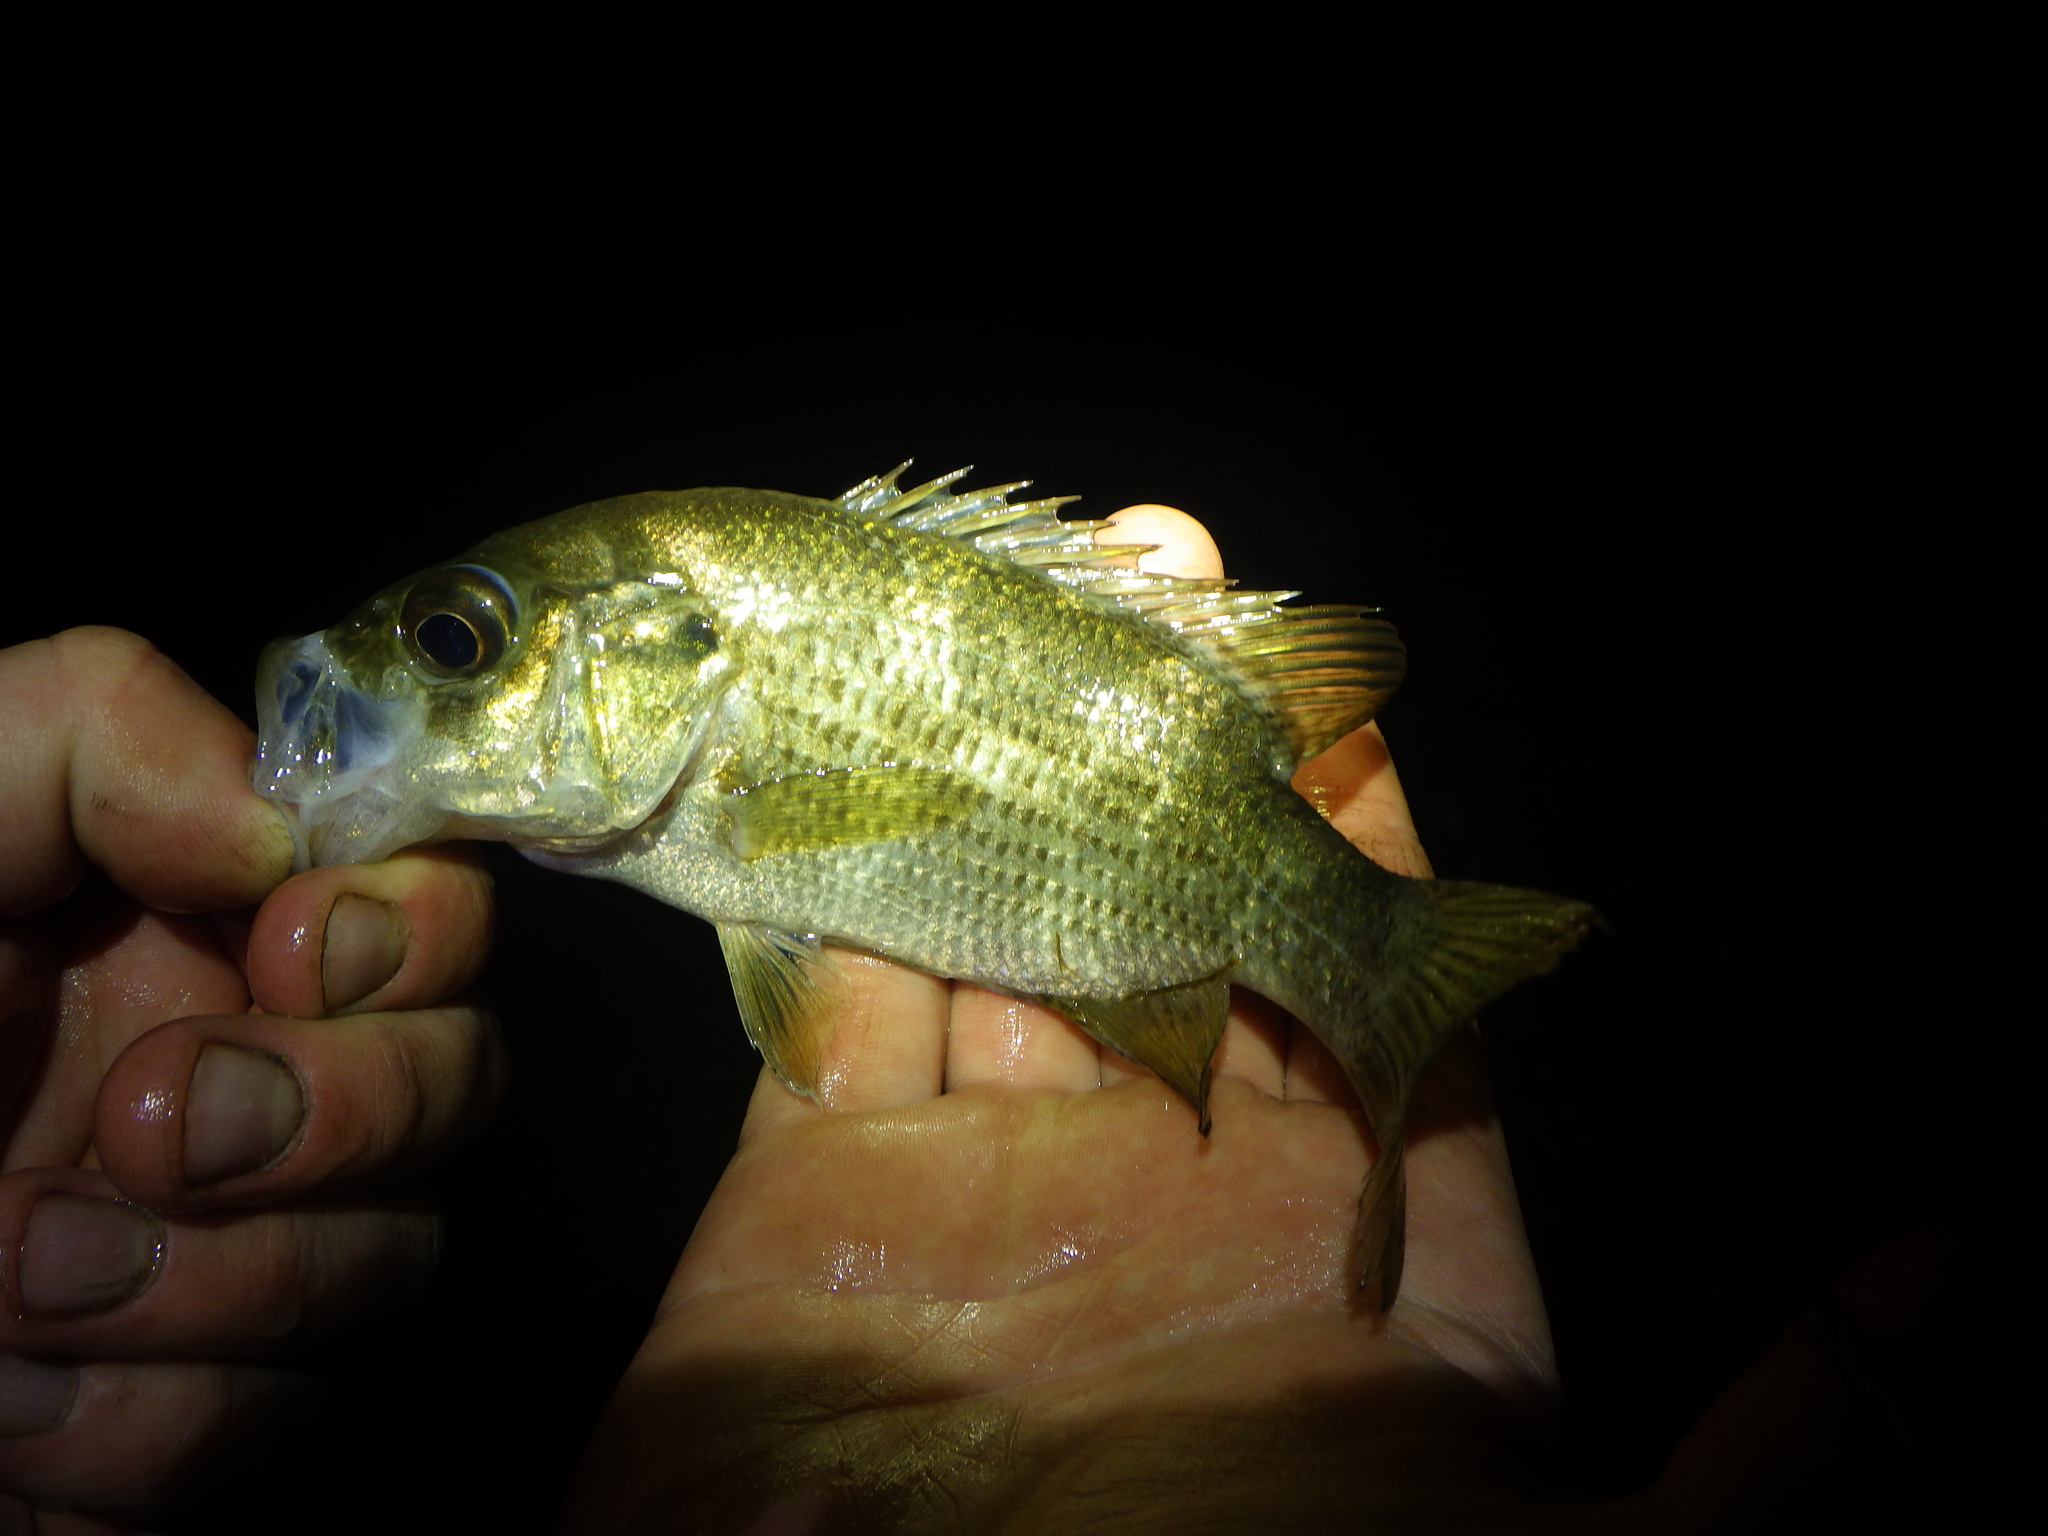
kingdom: Animalia
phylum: Chordata
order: Perciformes
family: Centrarchidae
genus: Ambloplites
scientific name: Ambloplites rupestris
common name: Rock bass
